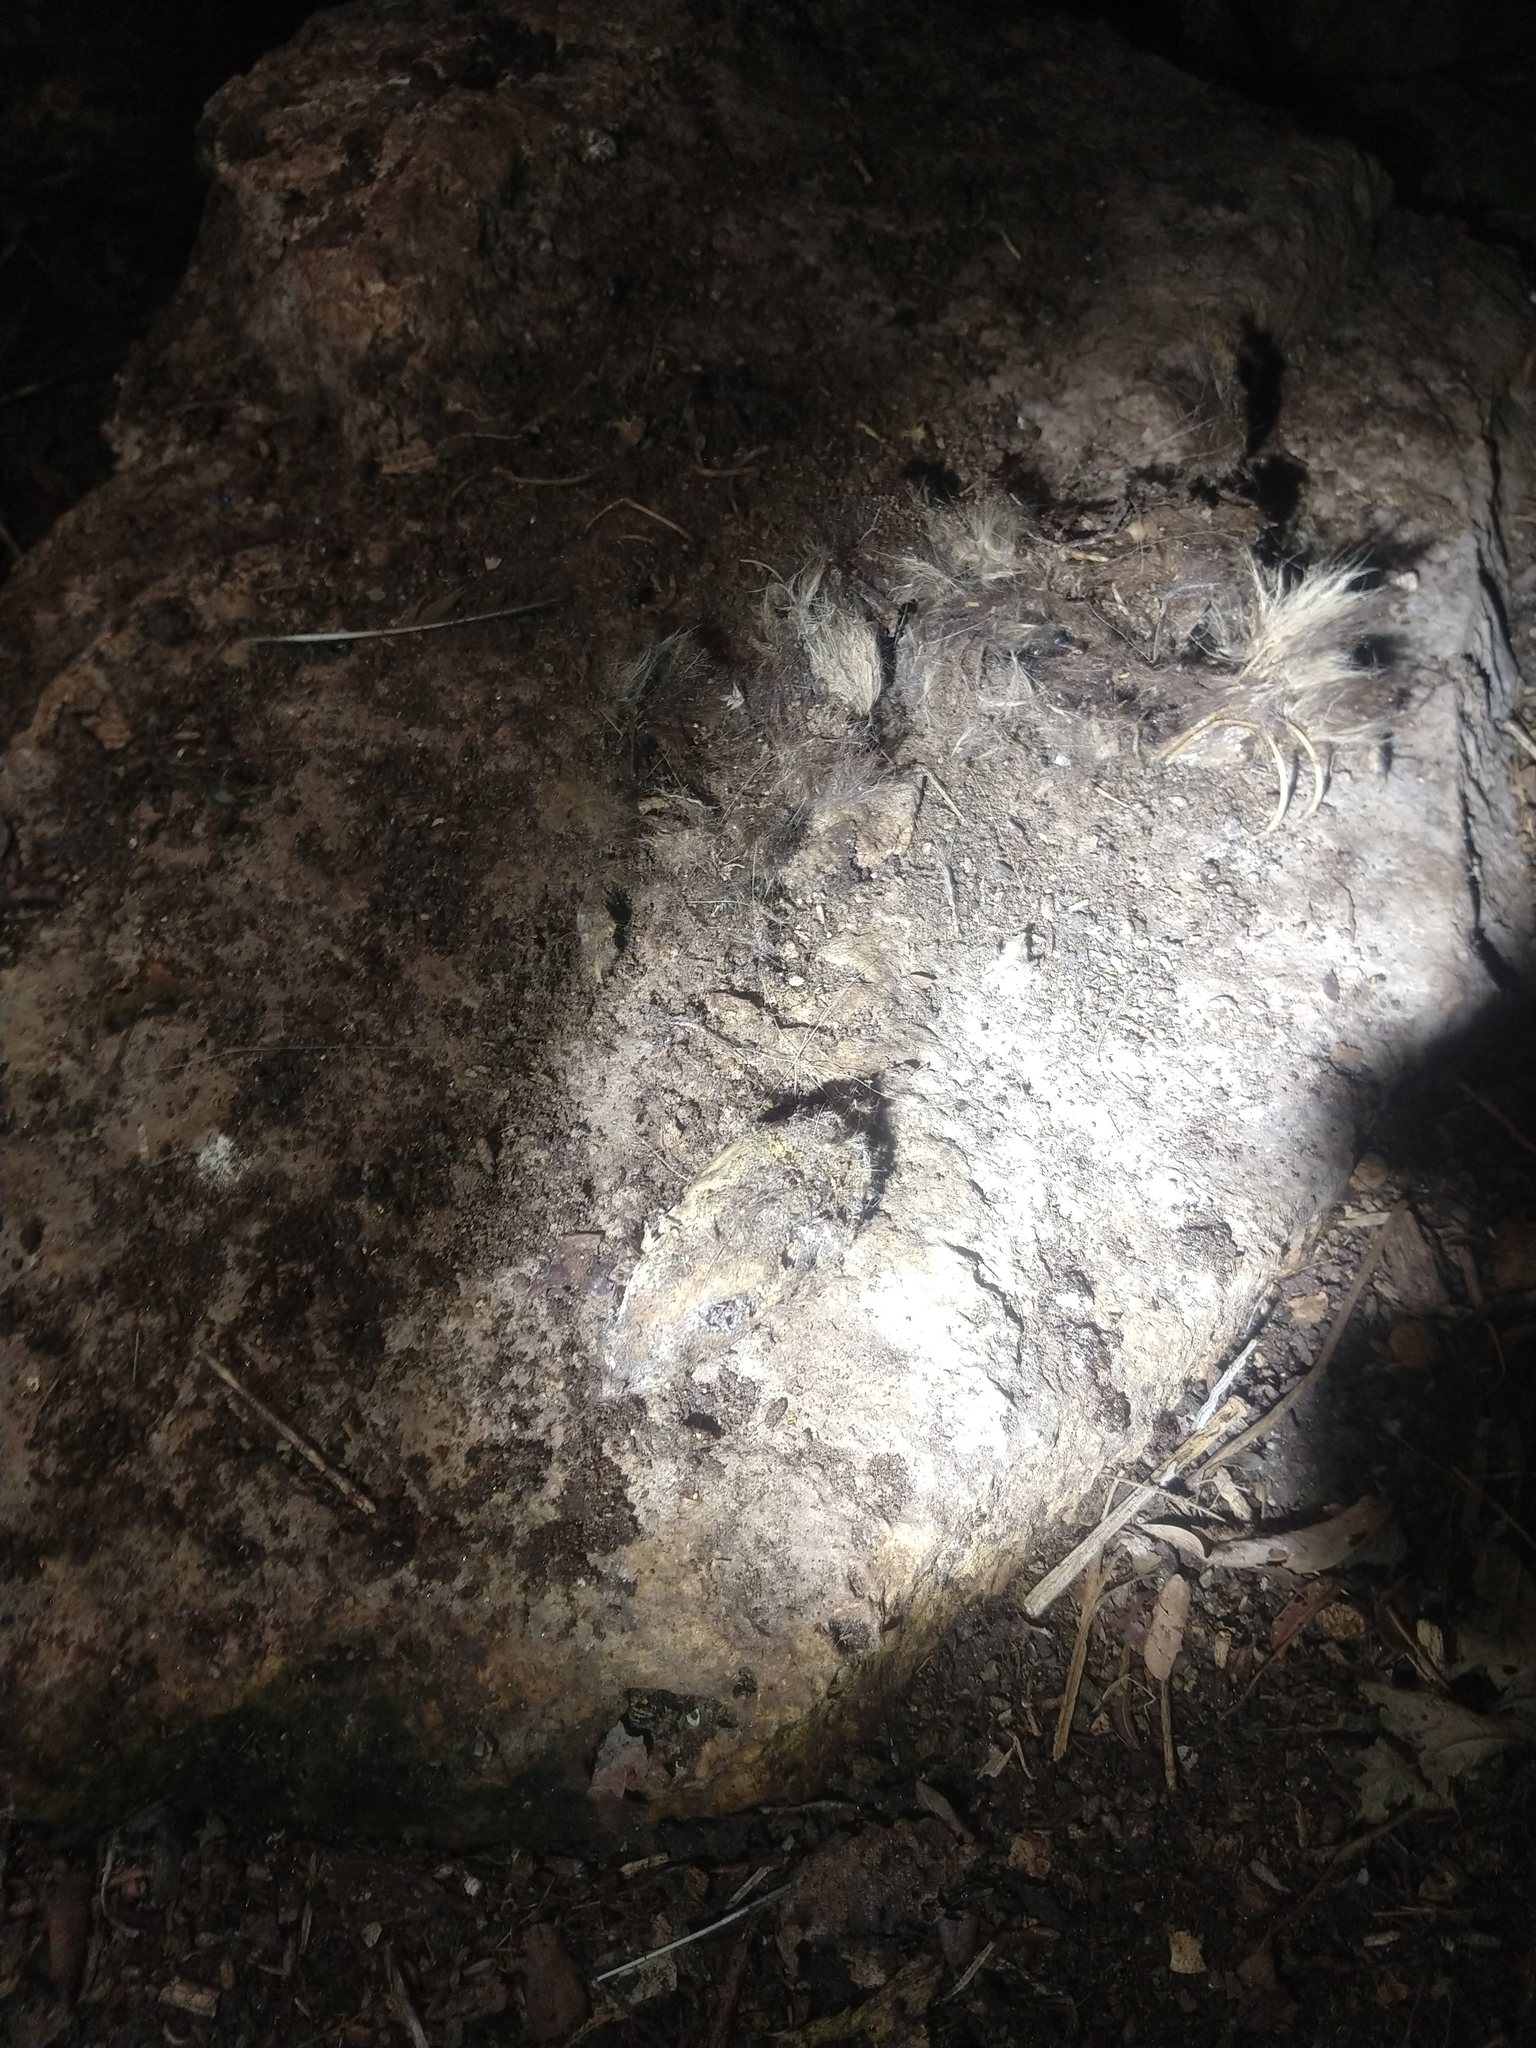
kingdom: Animalia
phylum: Chordata
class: Mammalia
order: Carnivora
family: Mephitidae
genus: Spilogale
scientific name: Spilogale angustifrons
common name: Southern spotted skunk
